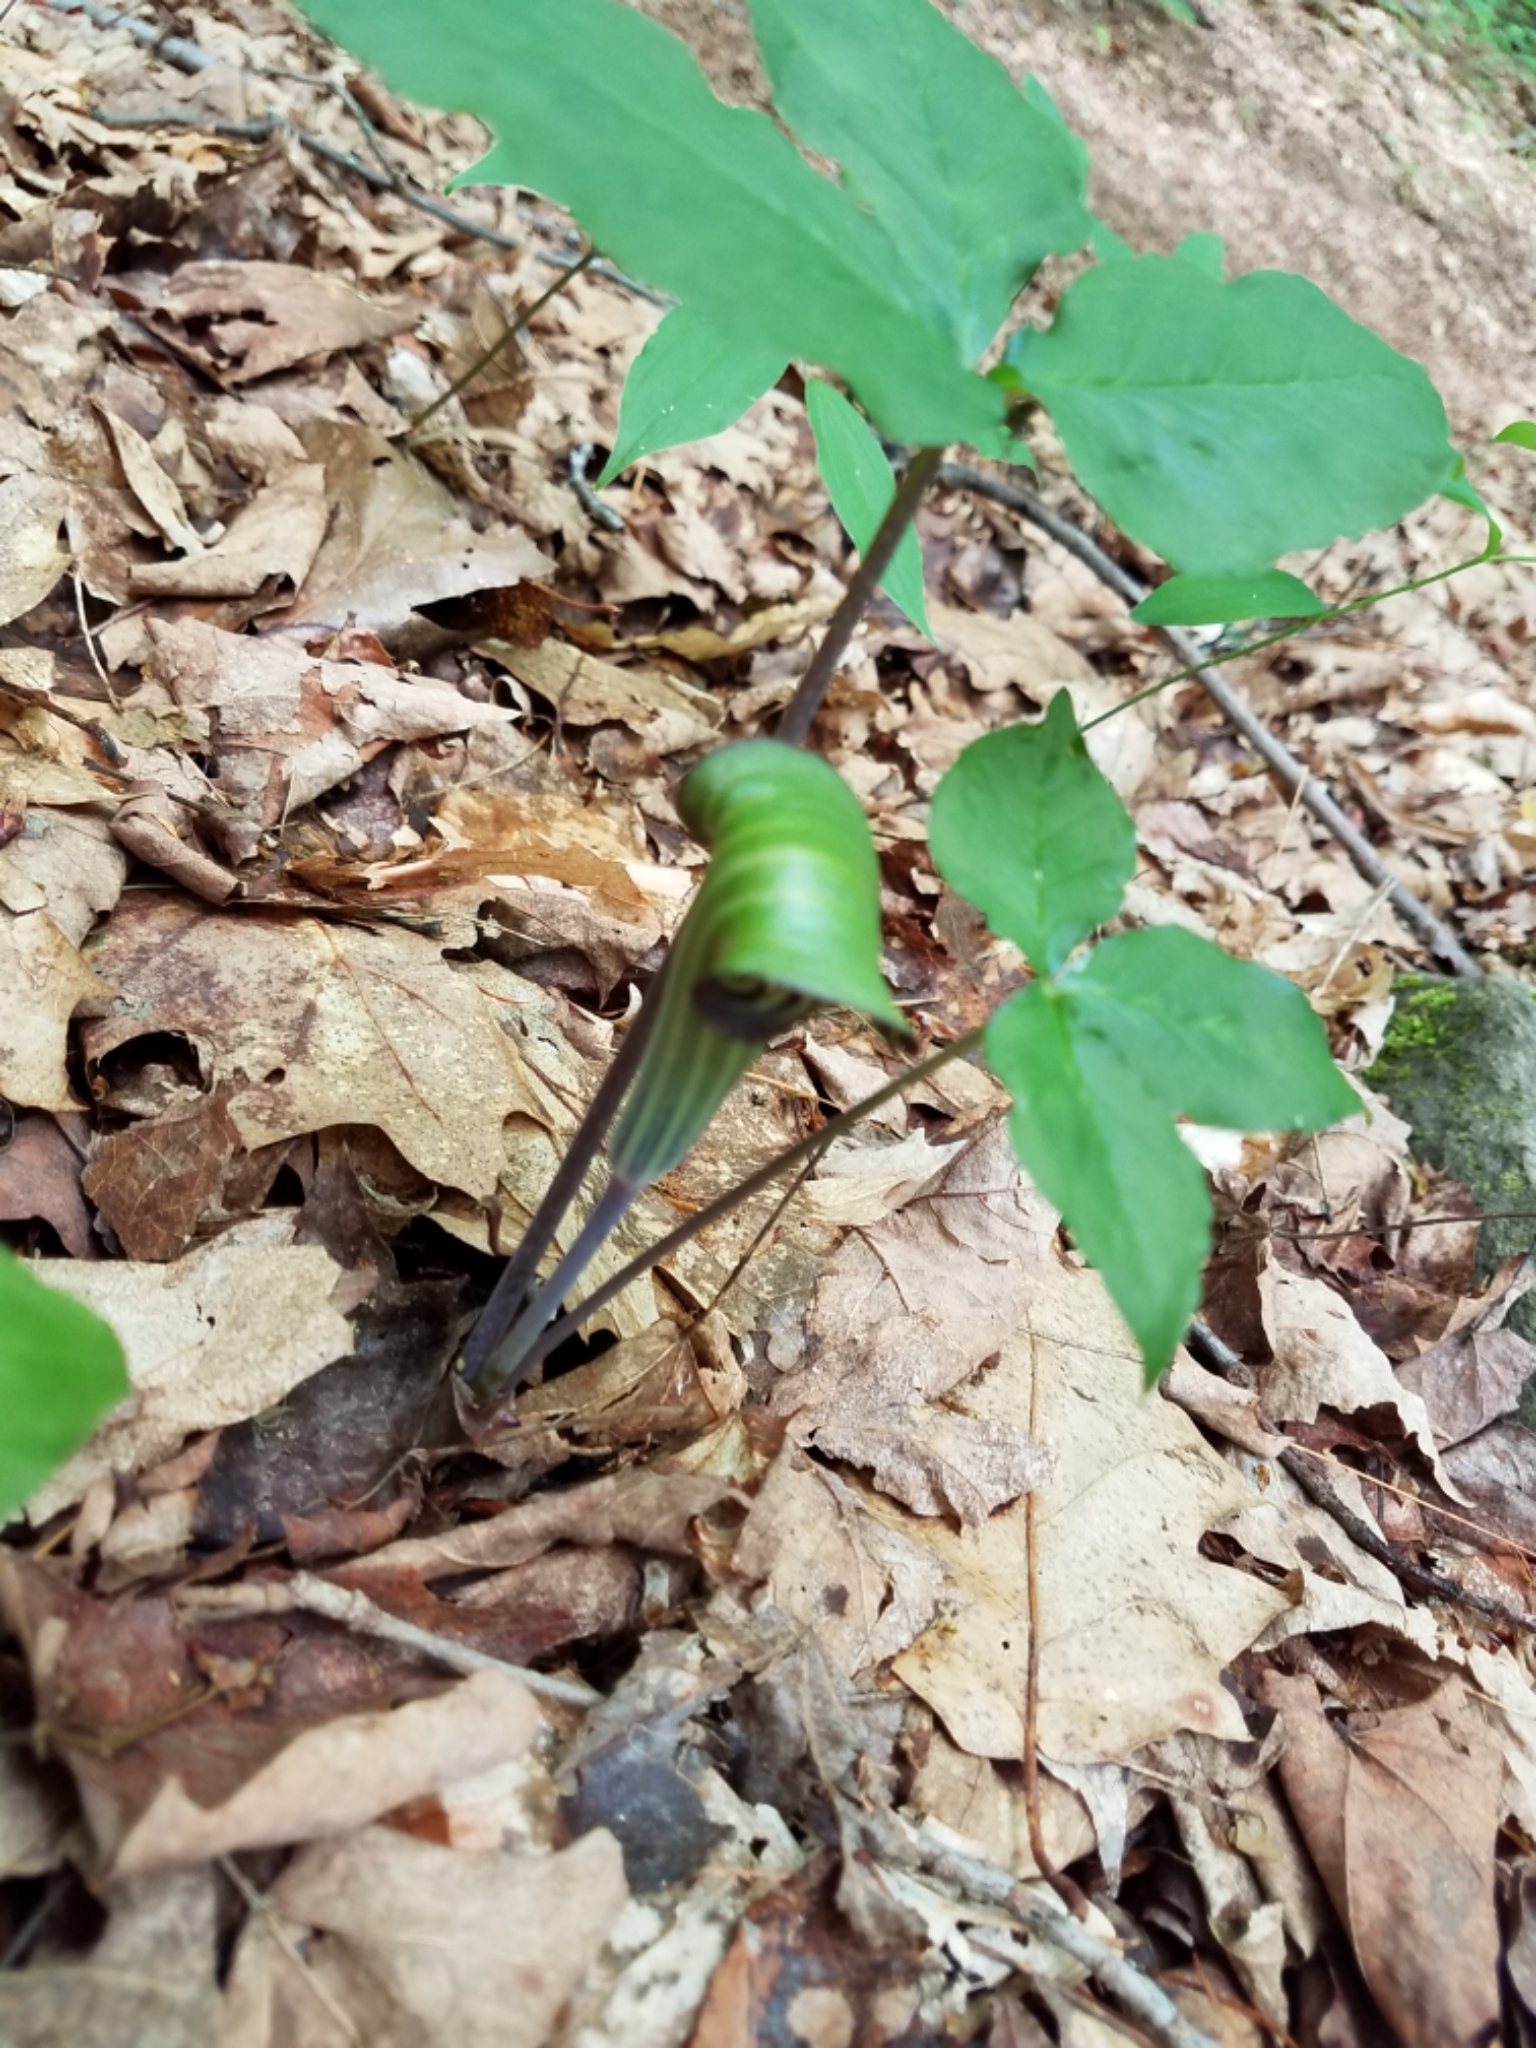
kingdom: Plantae
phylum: Tracheophyta
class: Liliopsida
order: Alismatales
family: Araceae
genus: Arisaema
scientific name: Arisaema triphyllum
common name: Jack-in-the-pulpit
